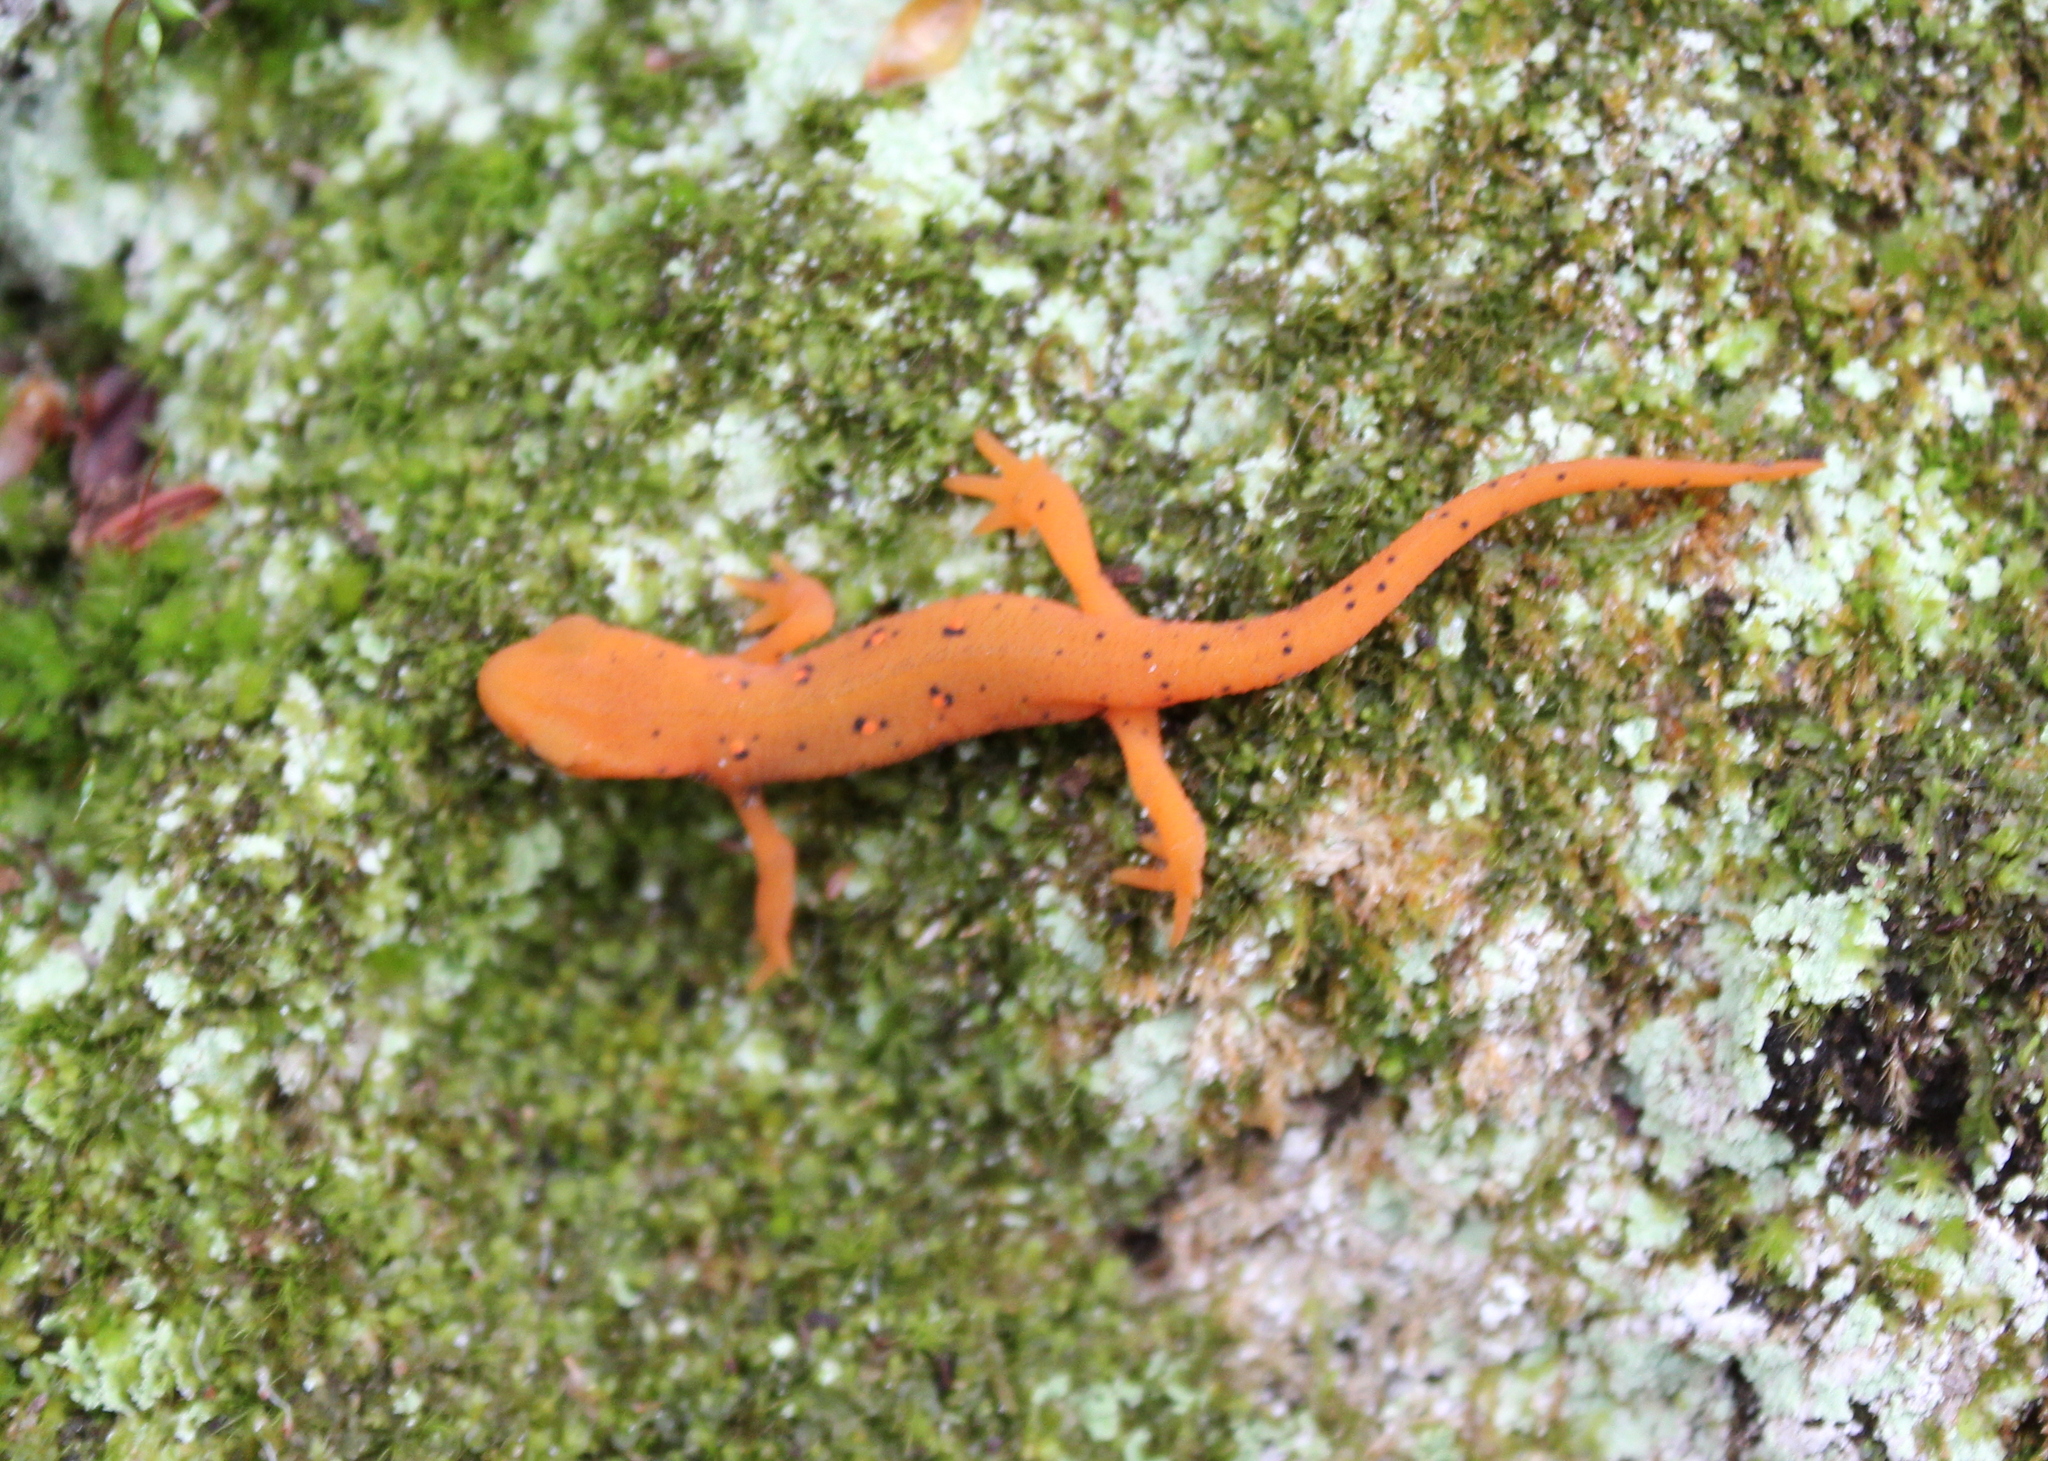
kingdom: Animalia
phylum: Chordata
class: Amphibia
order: Caudata
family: Salamandridae
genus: Notophthalmus
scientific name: Notophthalmus viridescens
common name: Eastern newt
